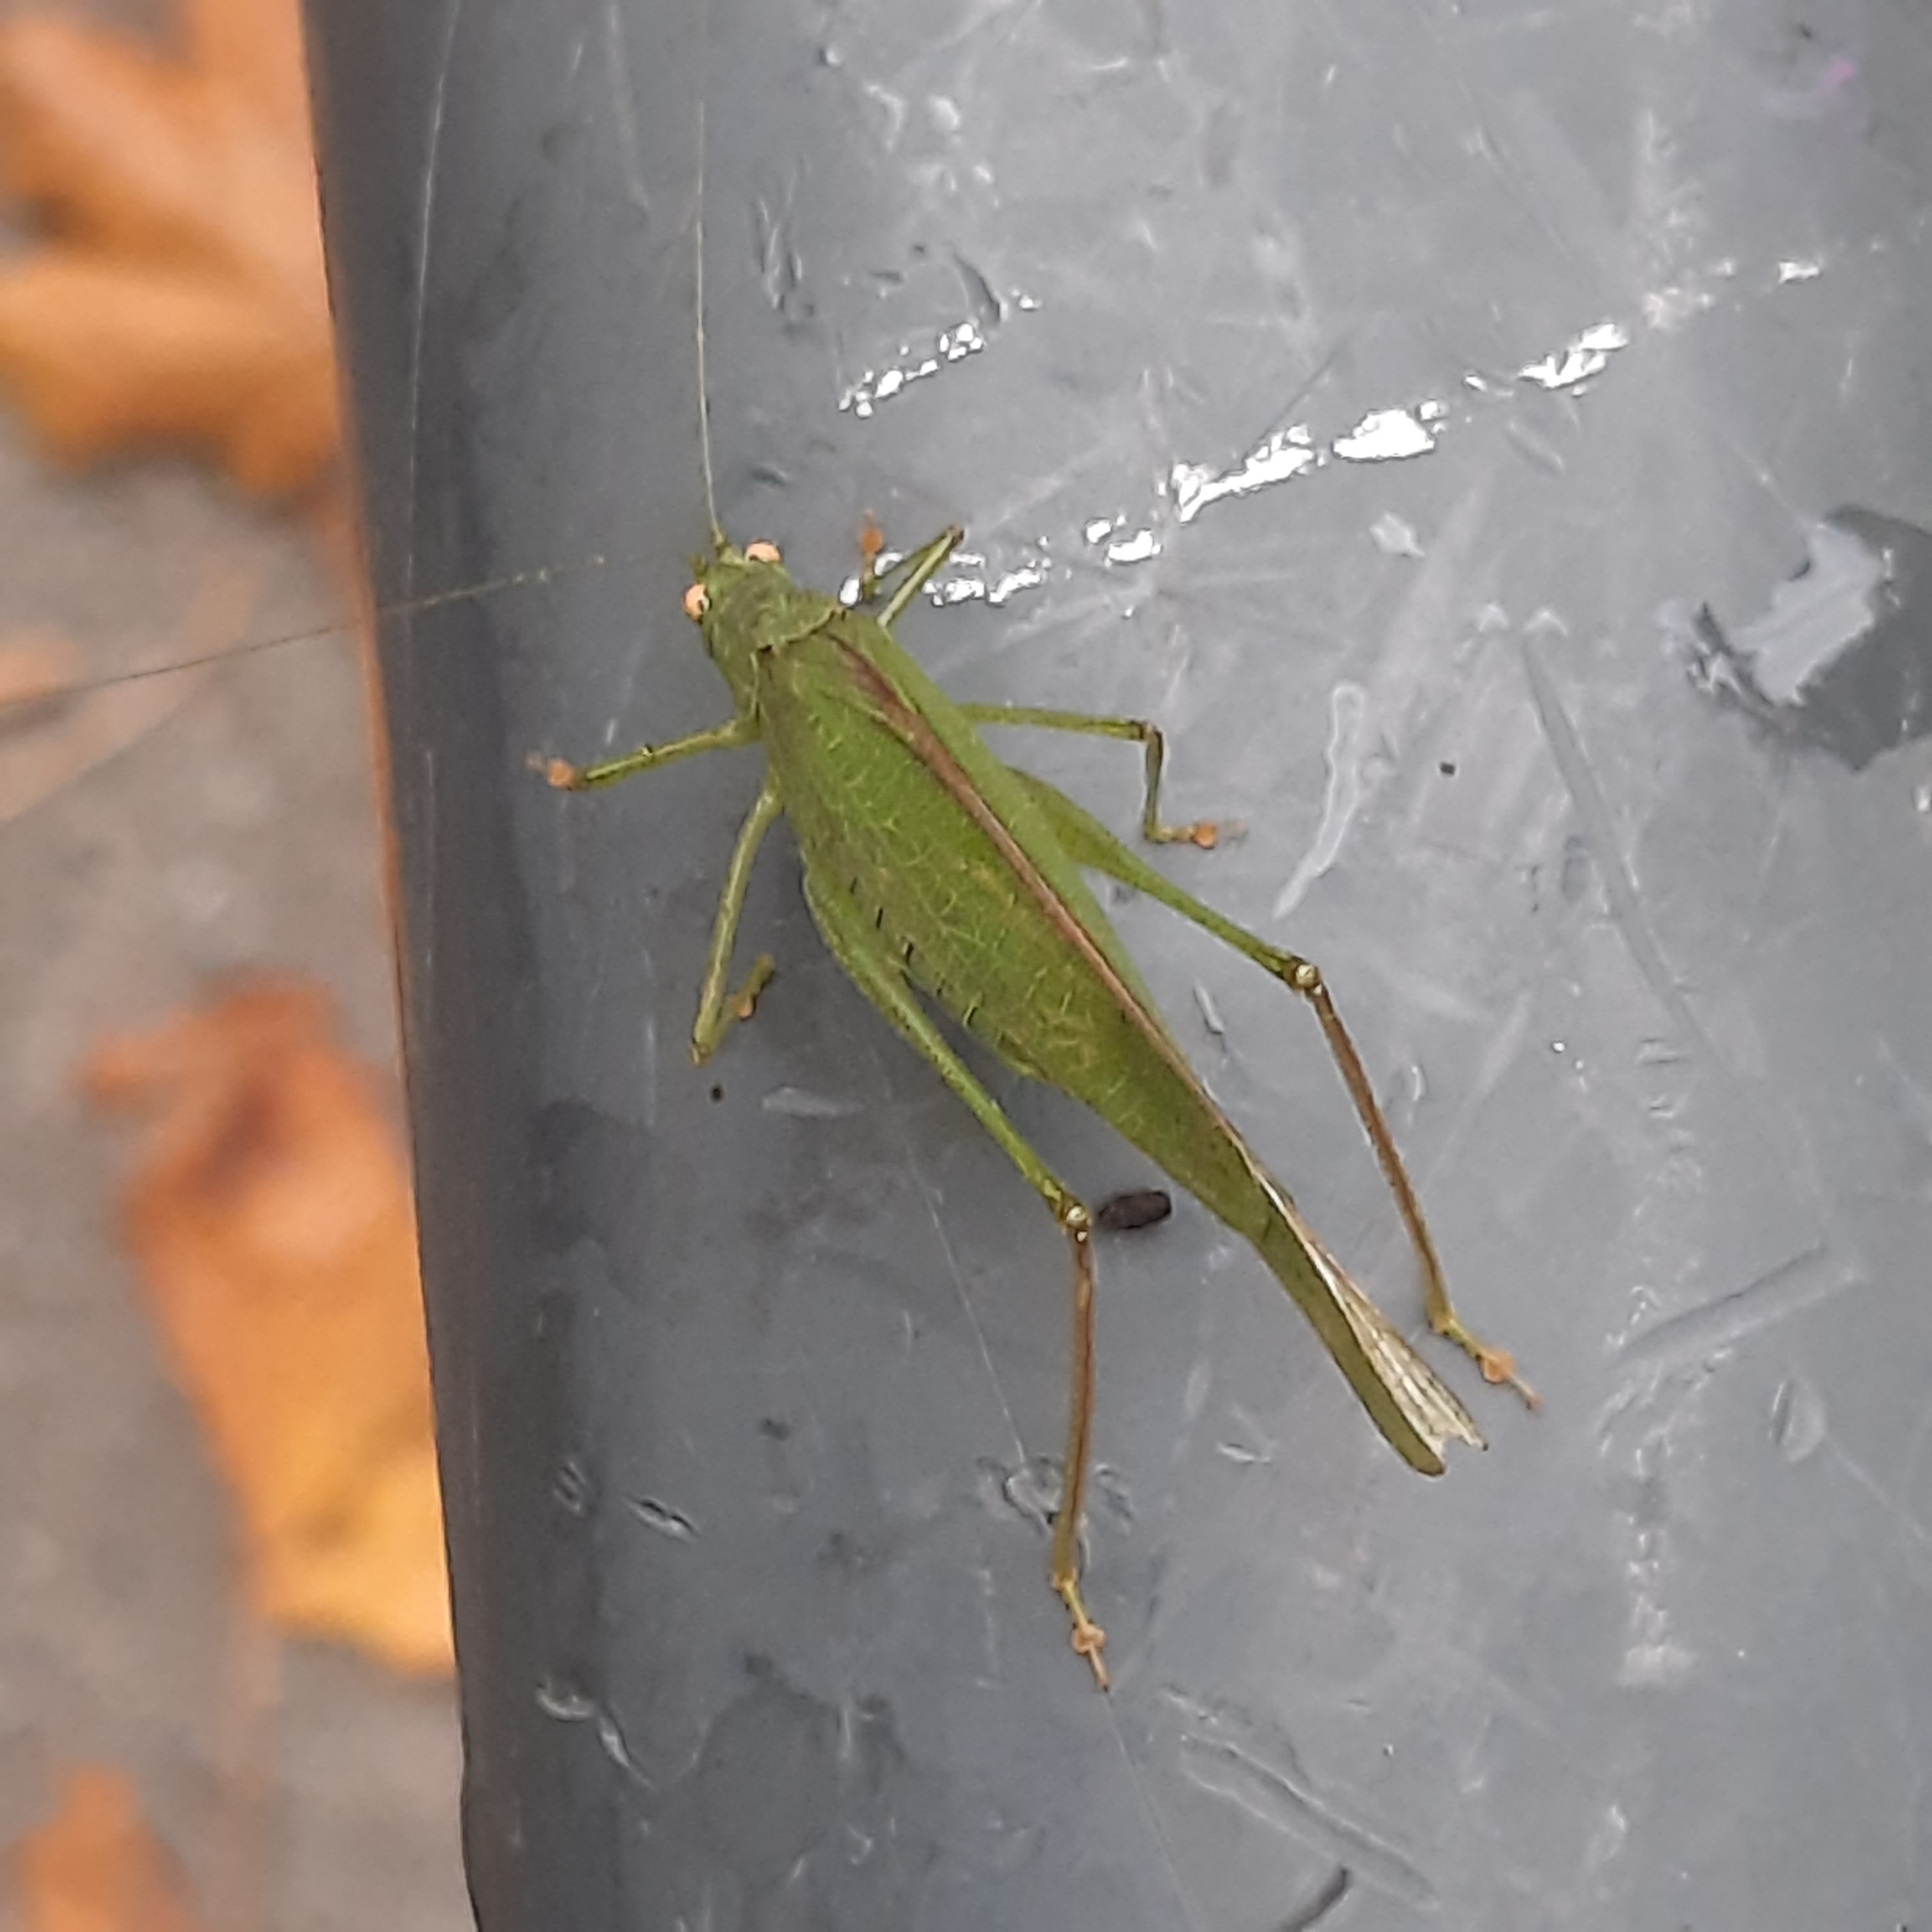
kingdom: Animalia
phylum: Arthropoda
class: Insecta
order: Orthoptera
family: Tettigoniidae
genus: Phaneroptera
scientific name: Phaneroptera nana
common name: Southern sickle bush-cricket
